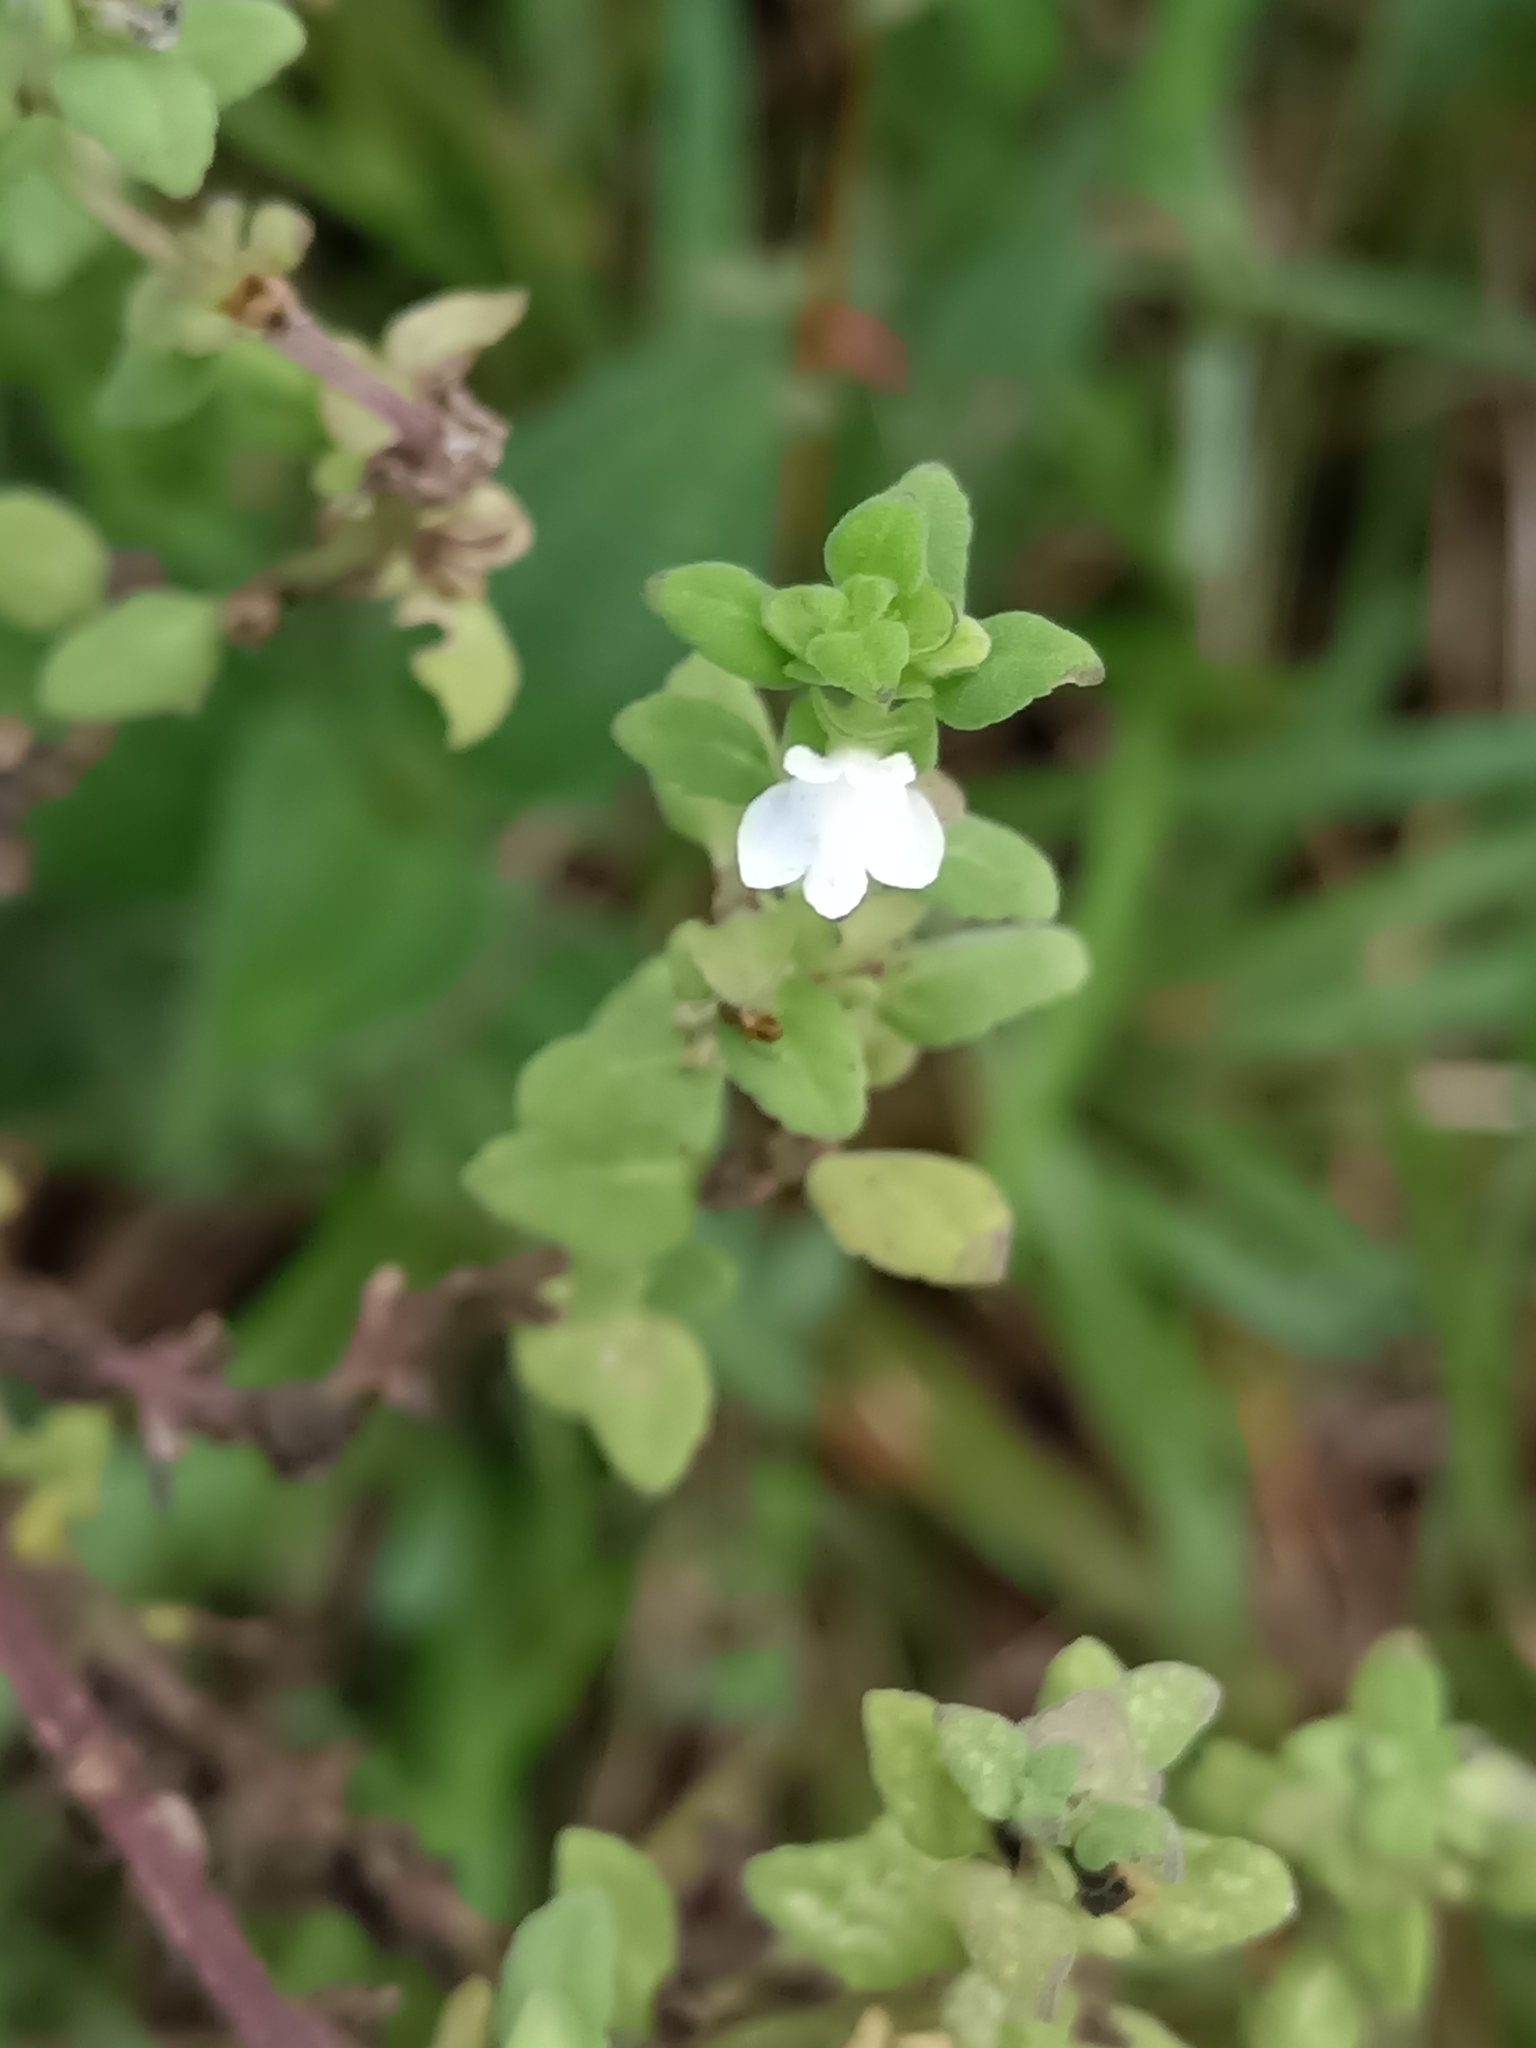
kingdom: Plantae
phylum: Tracheophyta
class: Magnoliopsida
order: Lamiales
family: Plantaginaceae
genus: Matourea
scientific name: Matourea pratensis
